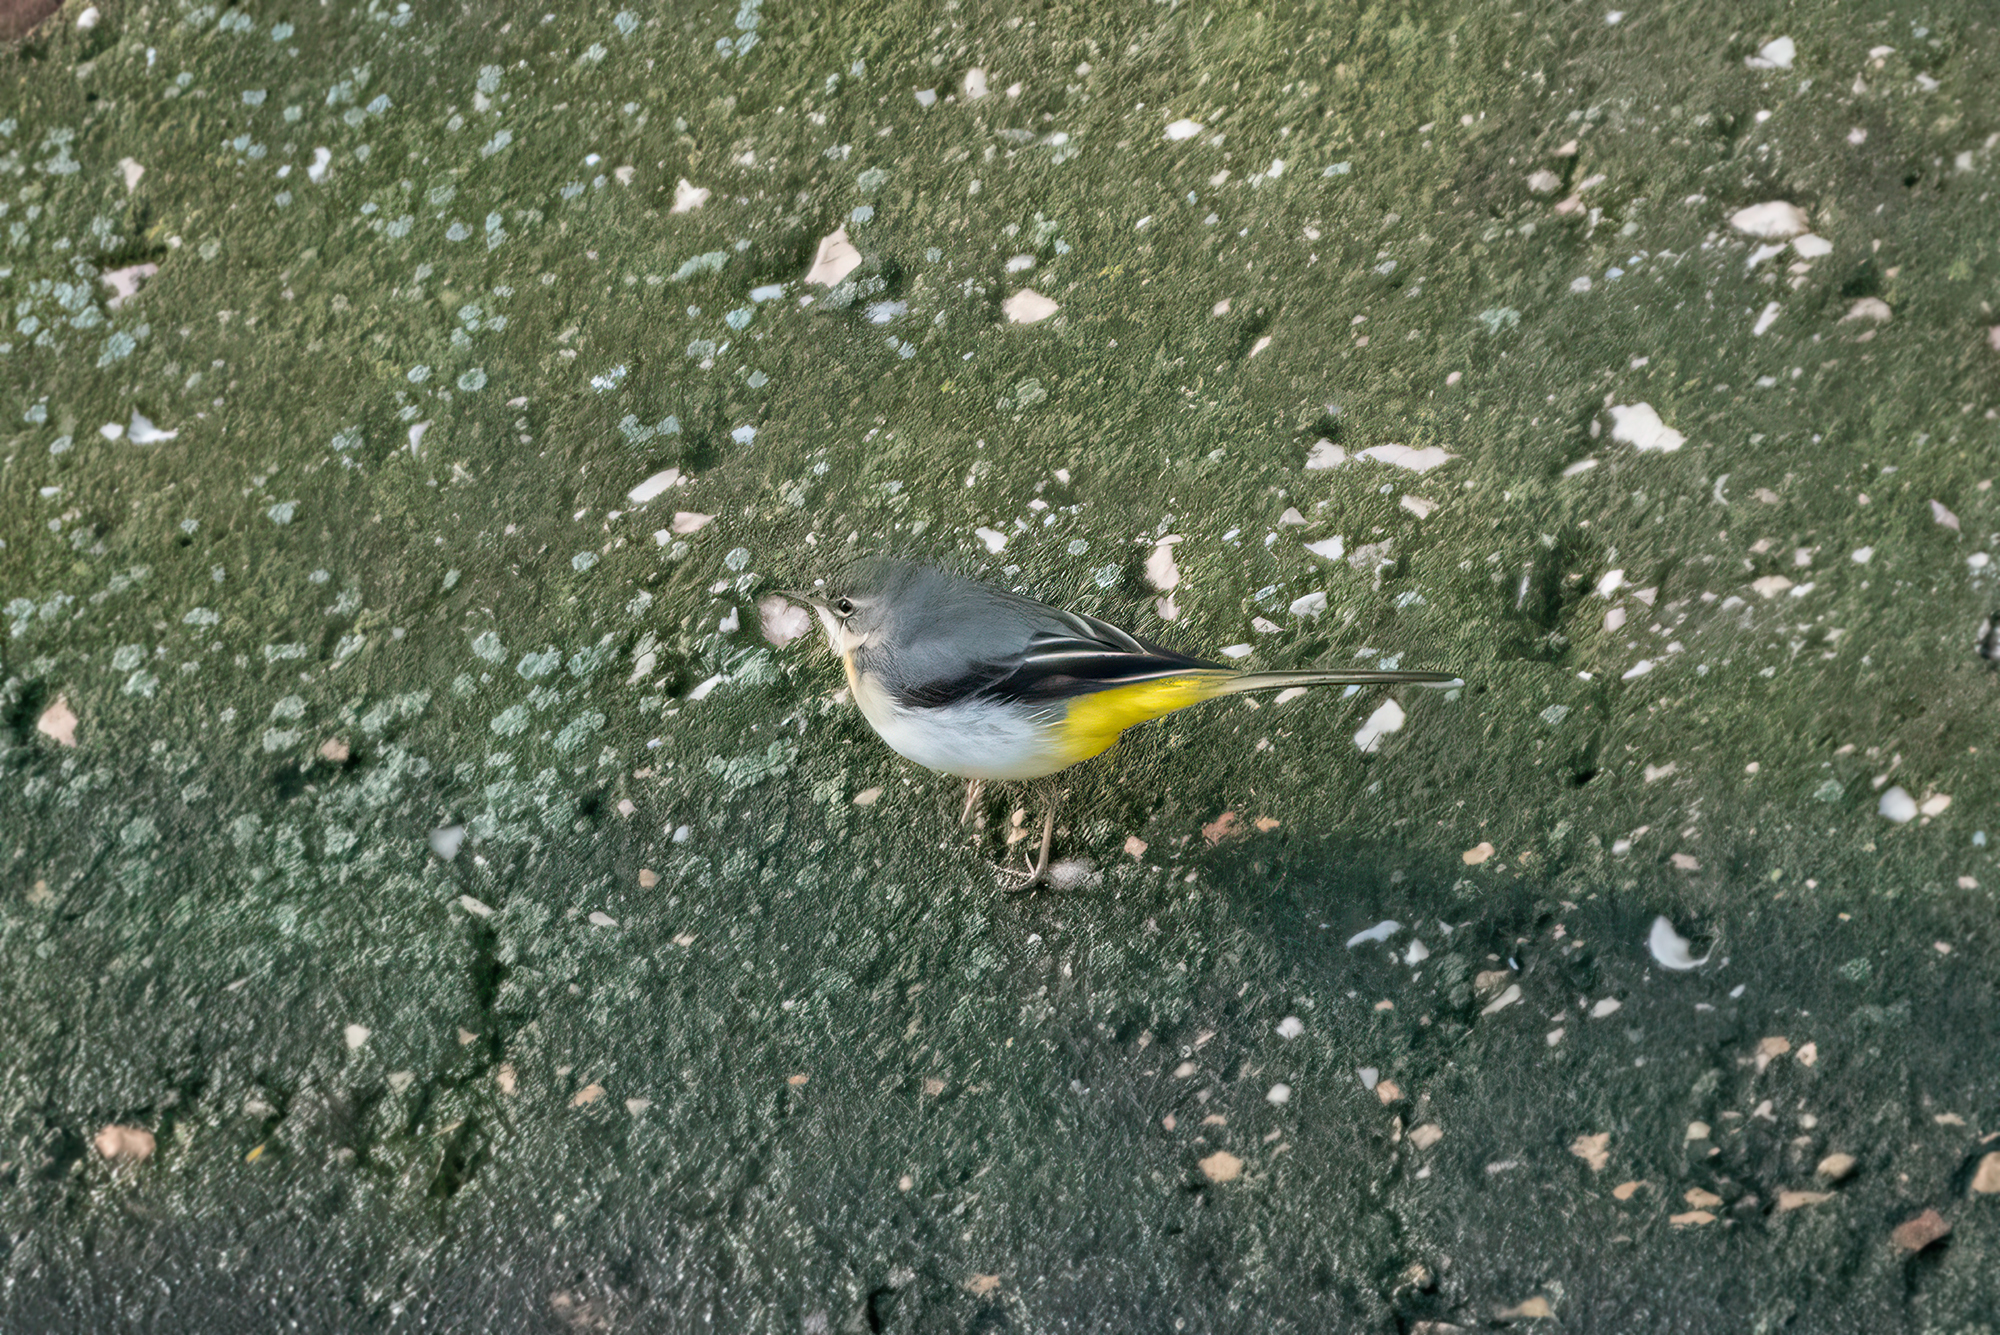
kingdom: Animalia
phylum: Chordata
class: Aves
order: Passeriformes
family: Motacillidae
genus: Motacilla
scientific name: Motacilla cinerea
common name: Grey wagtail
